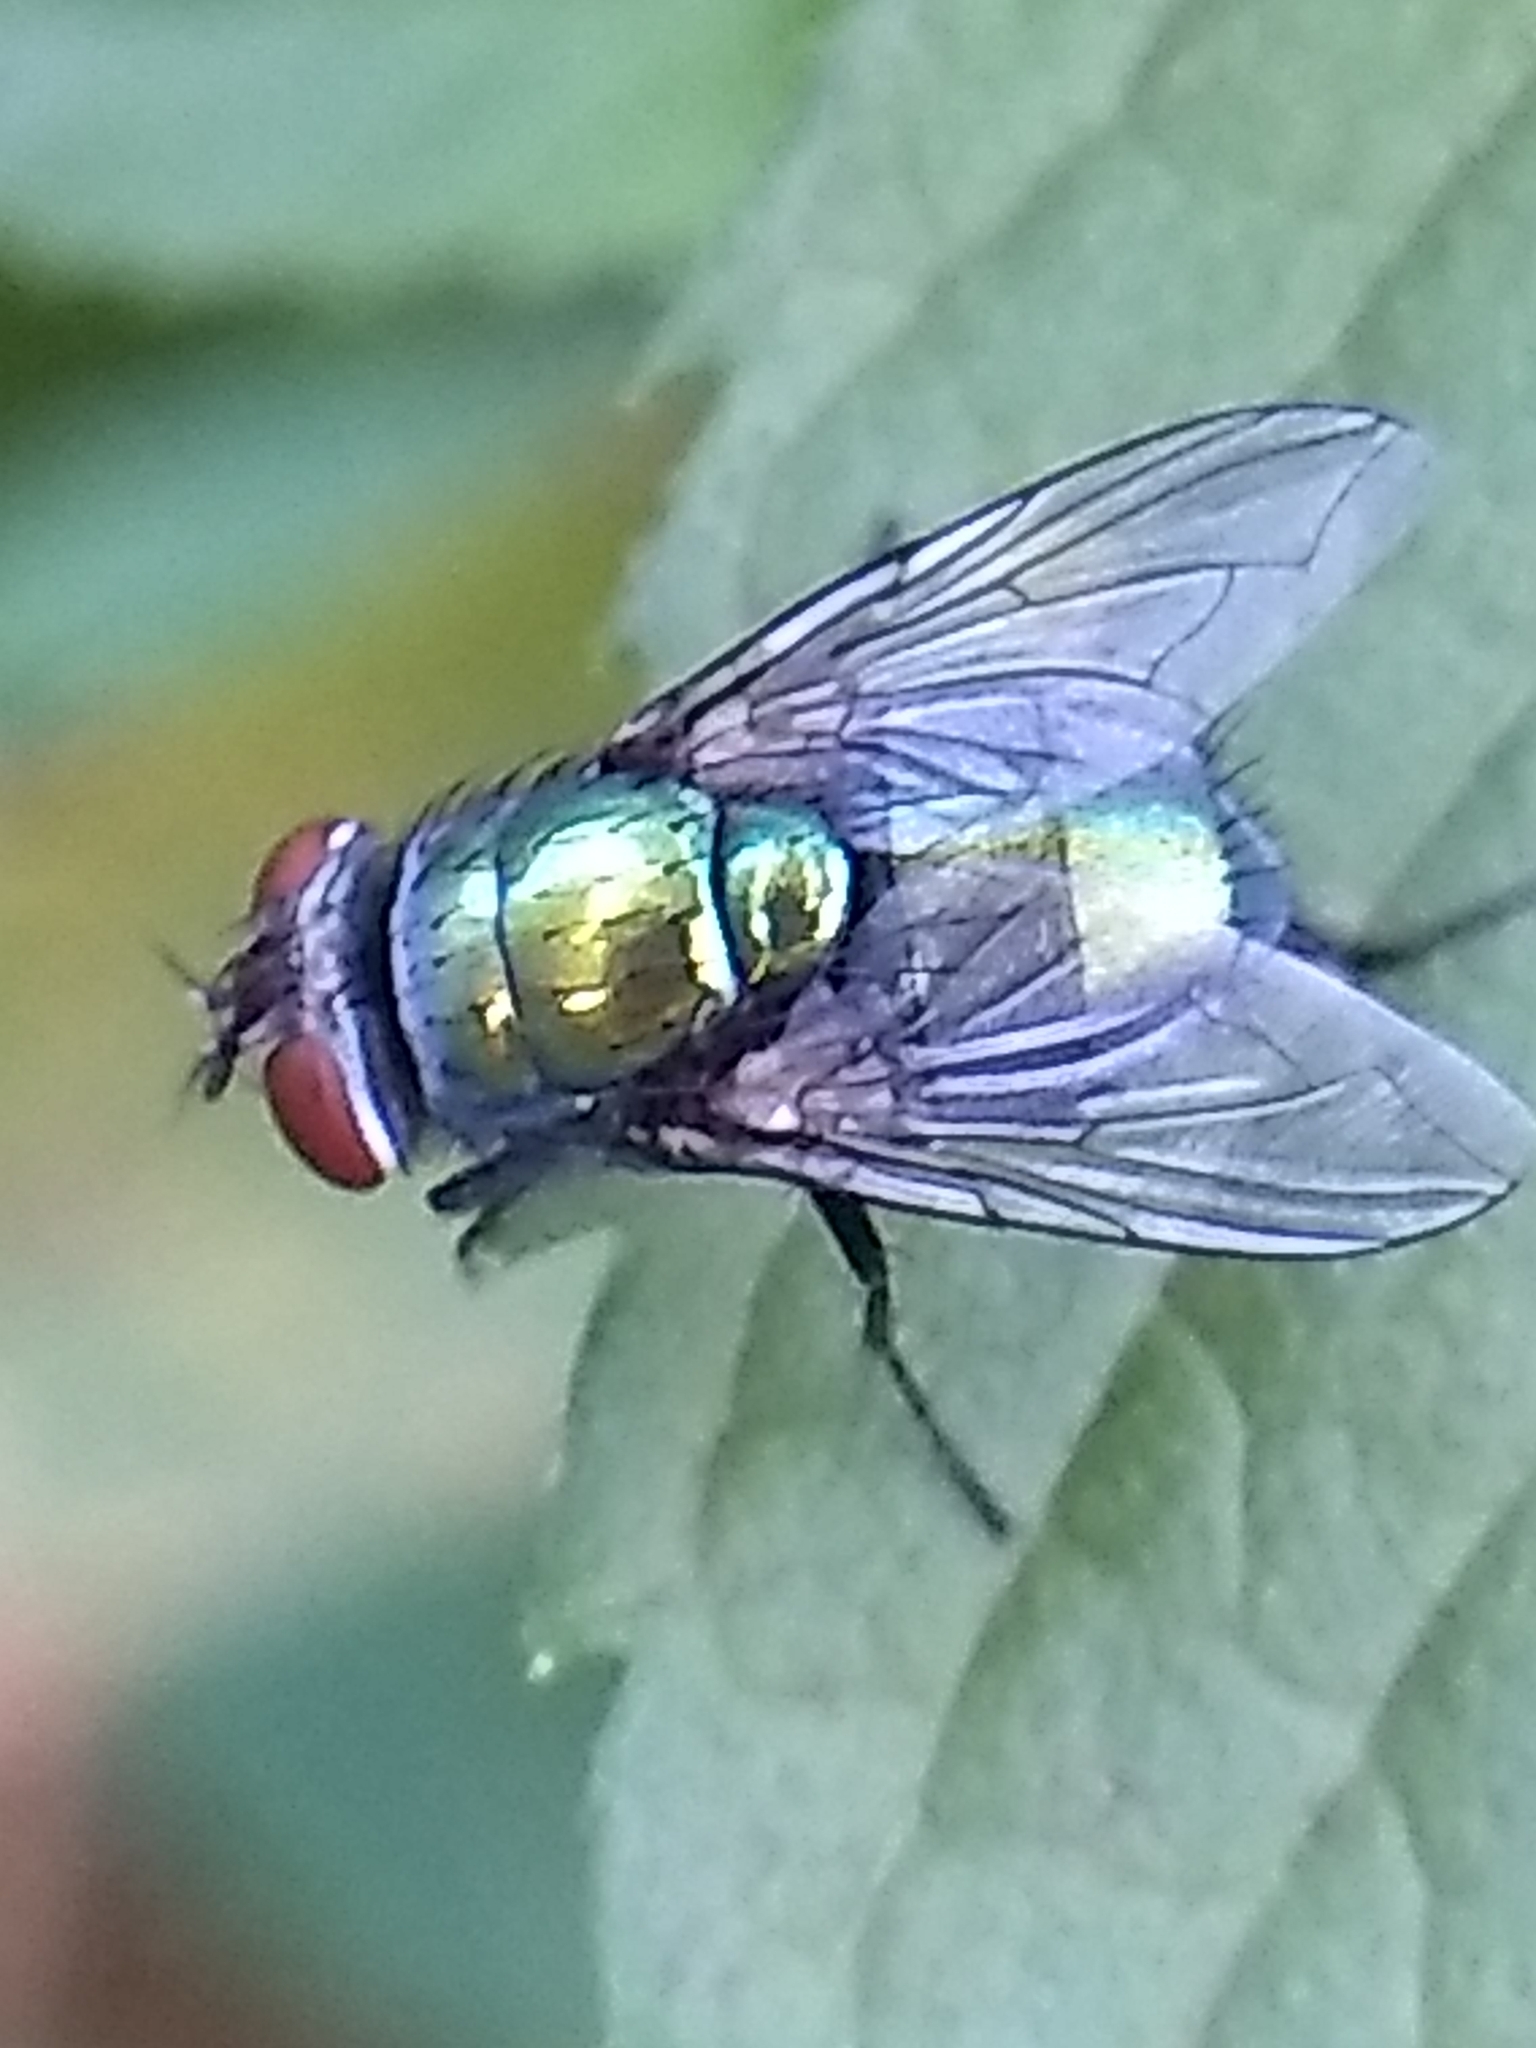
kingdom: Animalia
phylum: Arthropoda
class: Insecta
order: Diptera
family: Calliphoridae
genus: Lucilia
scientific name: Lucilia sericata
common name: Blow fly
